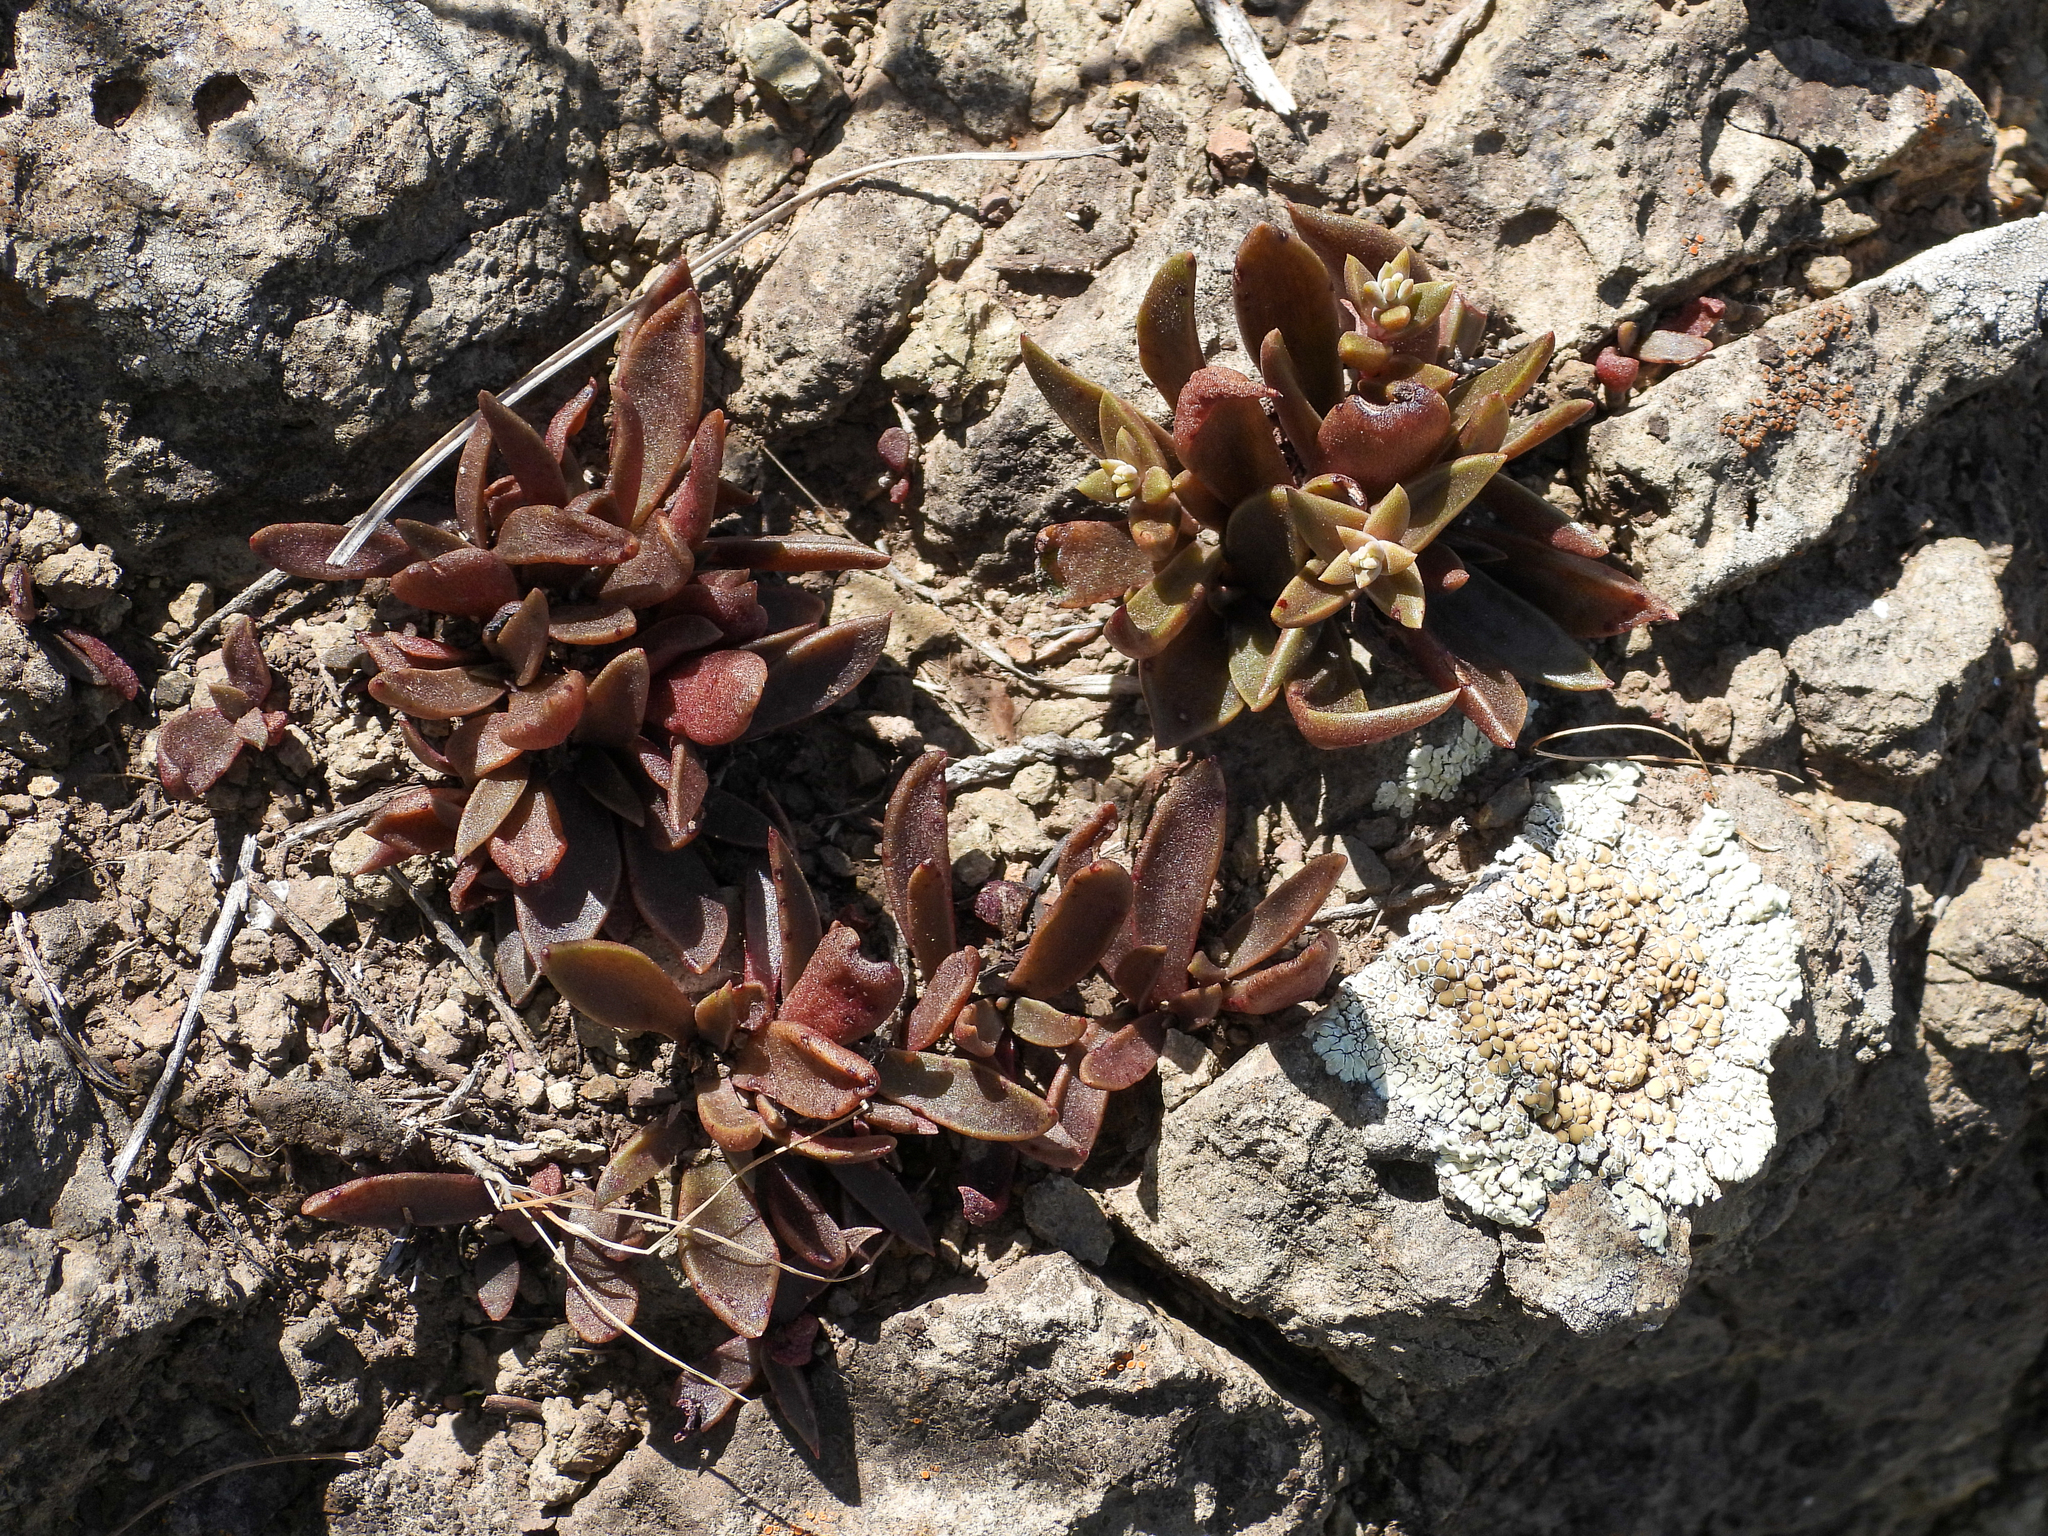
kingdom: Plantae
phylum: Tracheophyta
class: Magnoliopsida
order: Saxifragales
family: Crassulaceae
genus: Dudleya
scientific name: Dudleya parva
